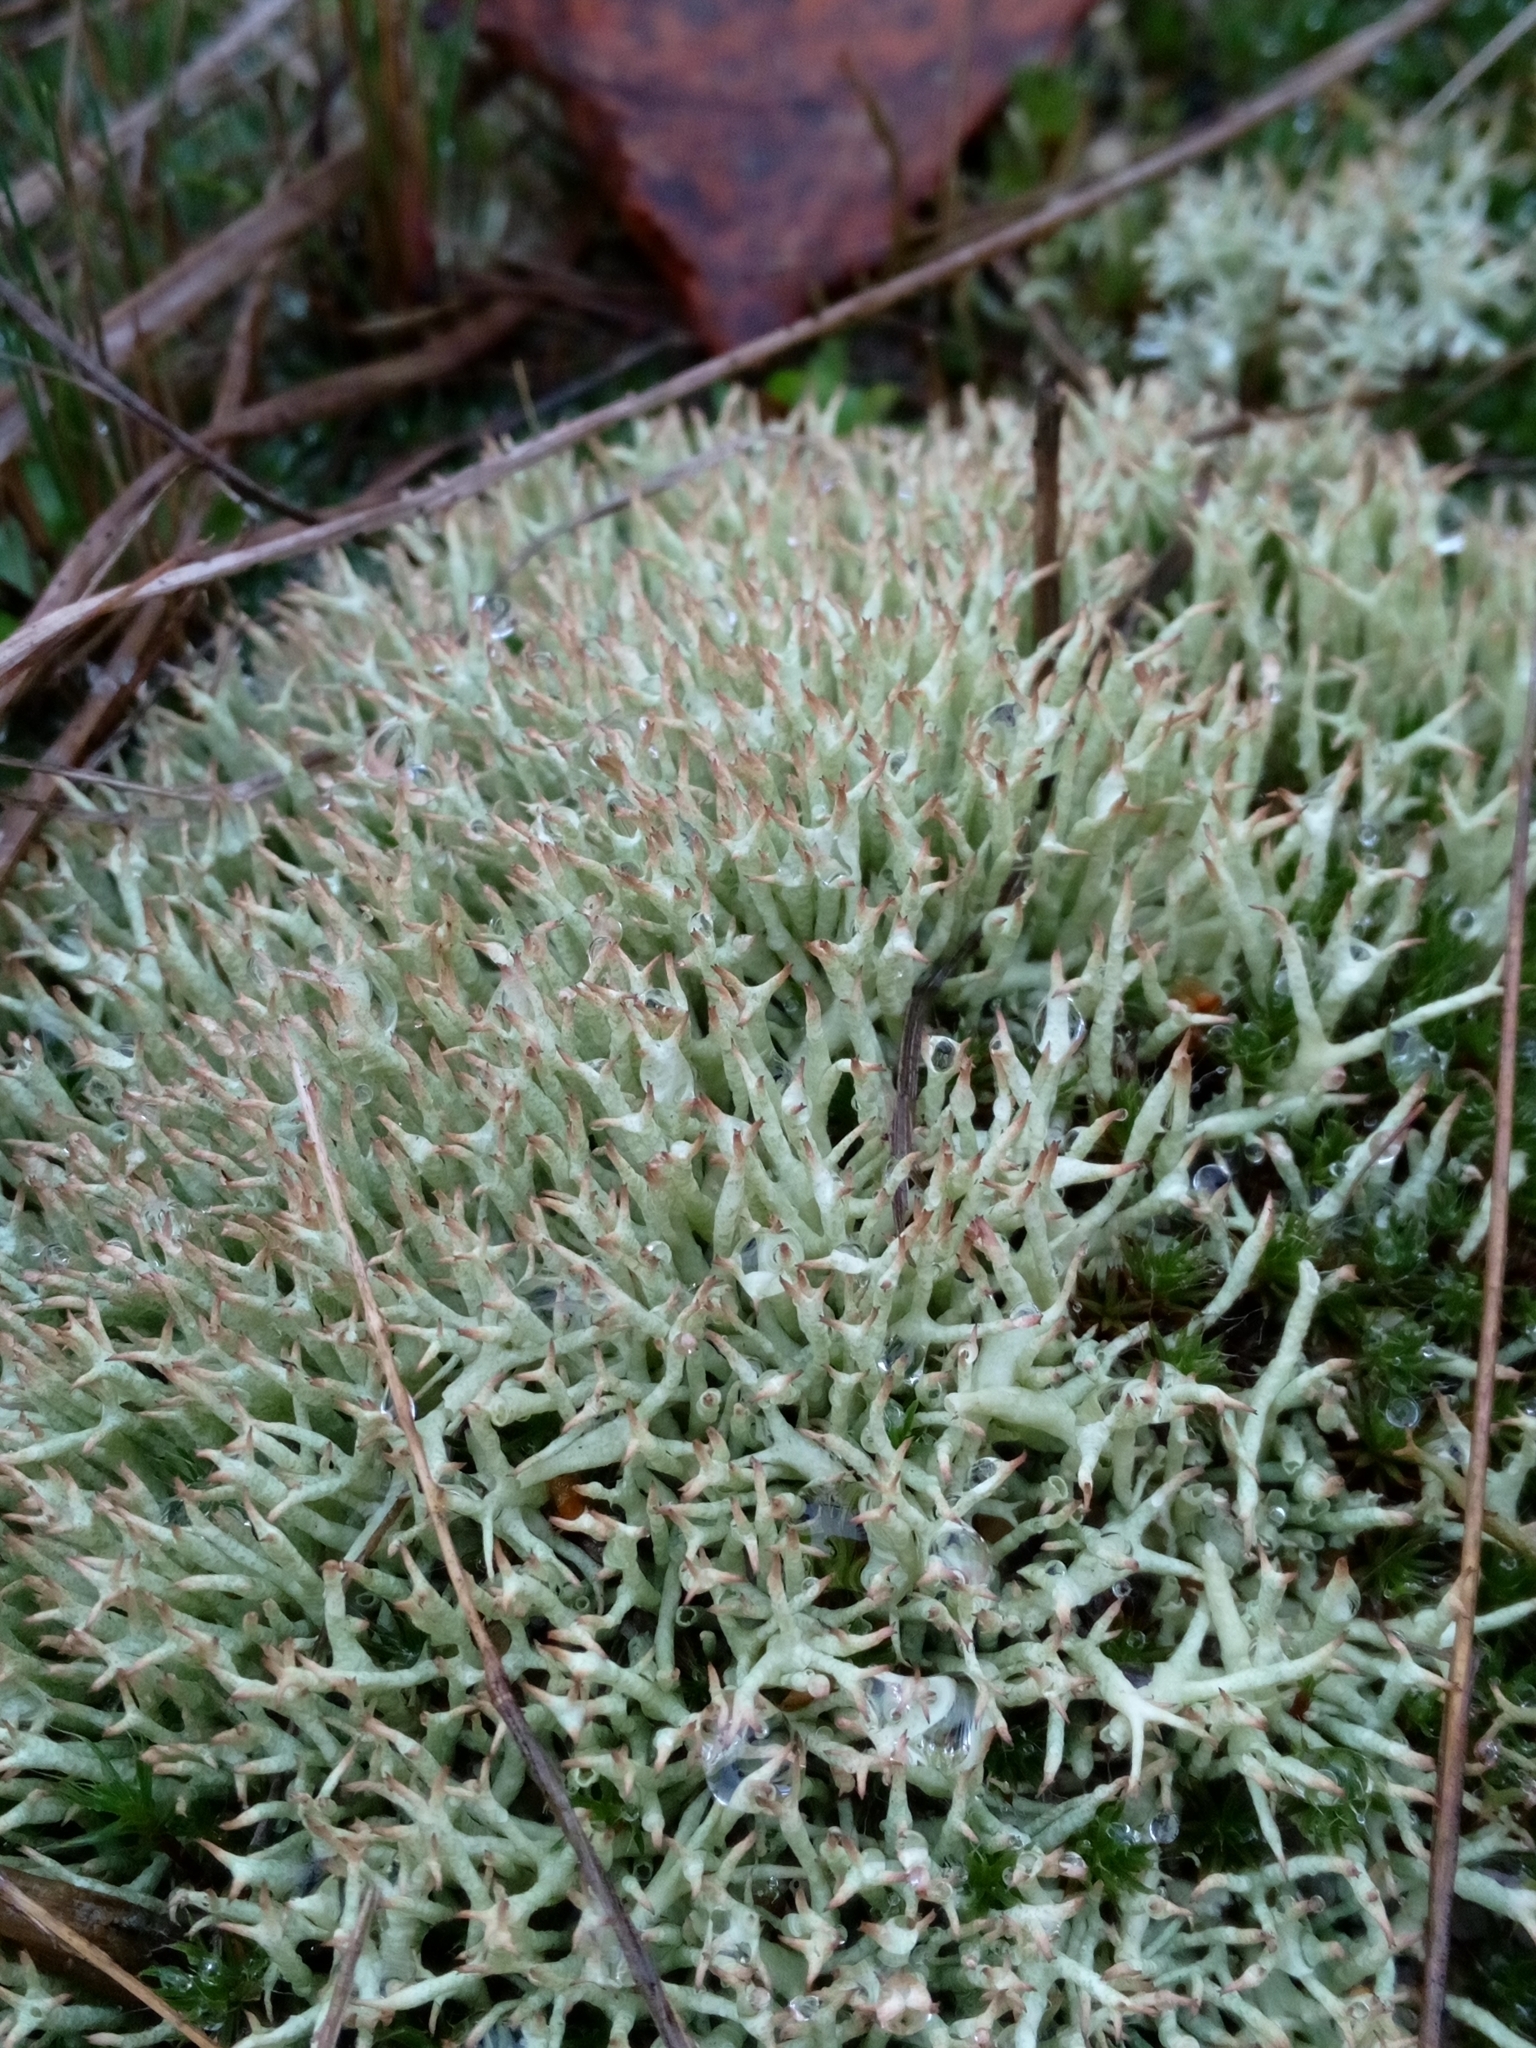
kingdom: Fungi
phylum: Ascomycota
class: Lecanoromycetes
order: Lecanorales
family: Cladoniaceae
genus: Cladonia
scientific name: Cladonia uncialis
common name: Thorn lichen
